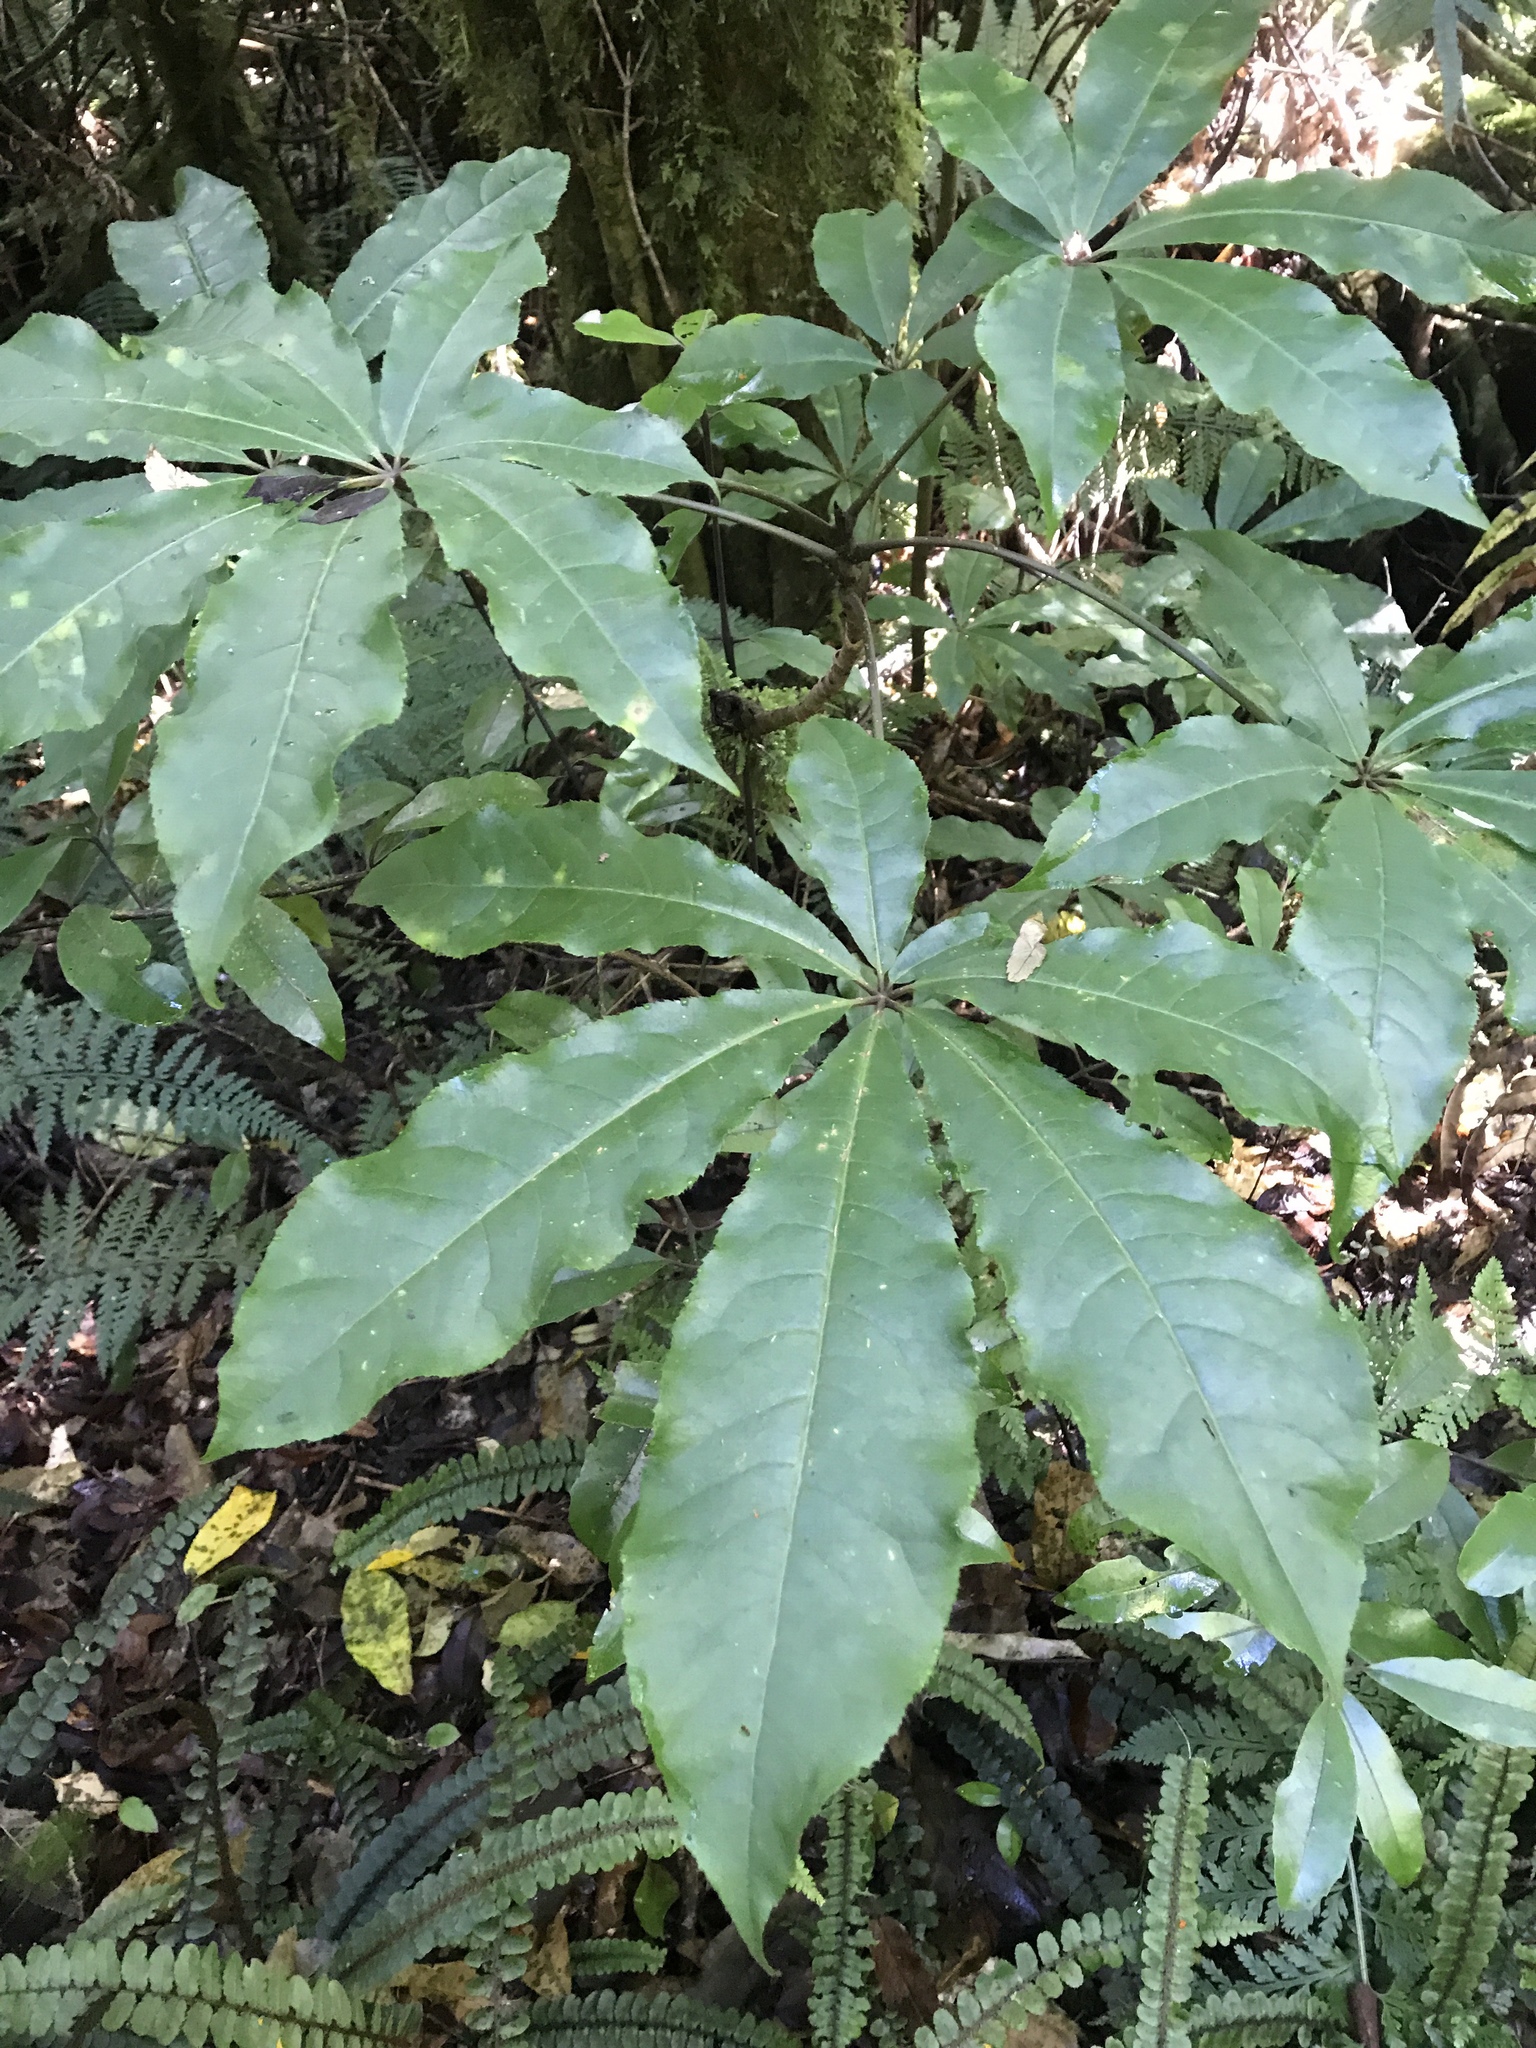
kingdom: Plantae
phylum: Tracheophyta
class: Magnoliopsida
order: Apiales
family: Araliaceae
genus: Schefflera
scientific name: Schefflera digitata
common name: Pate
